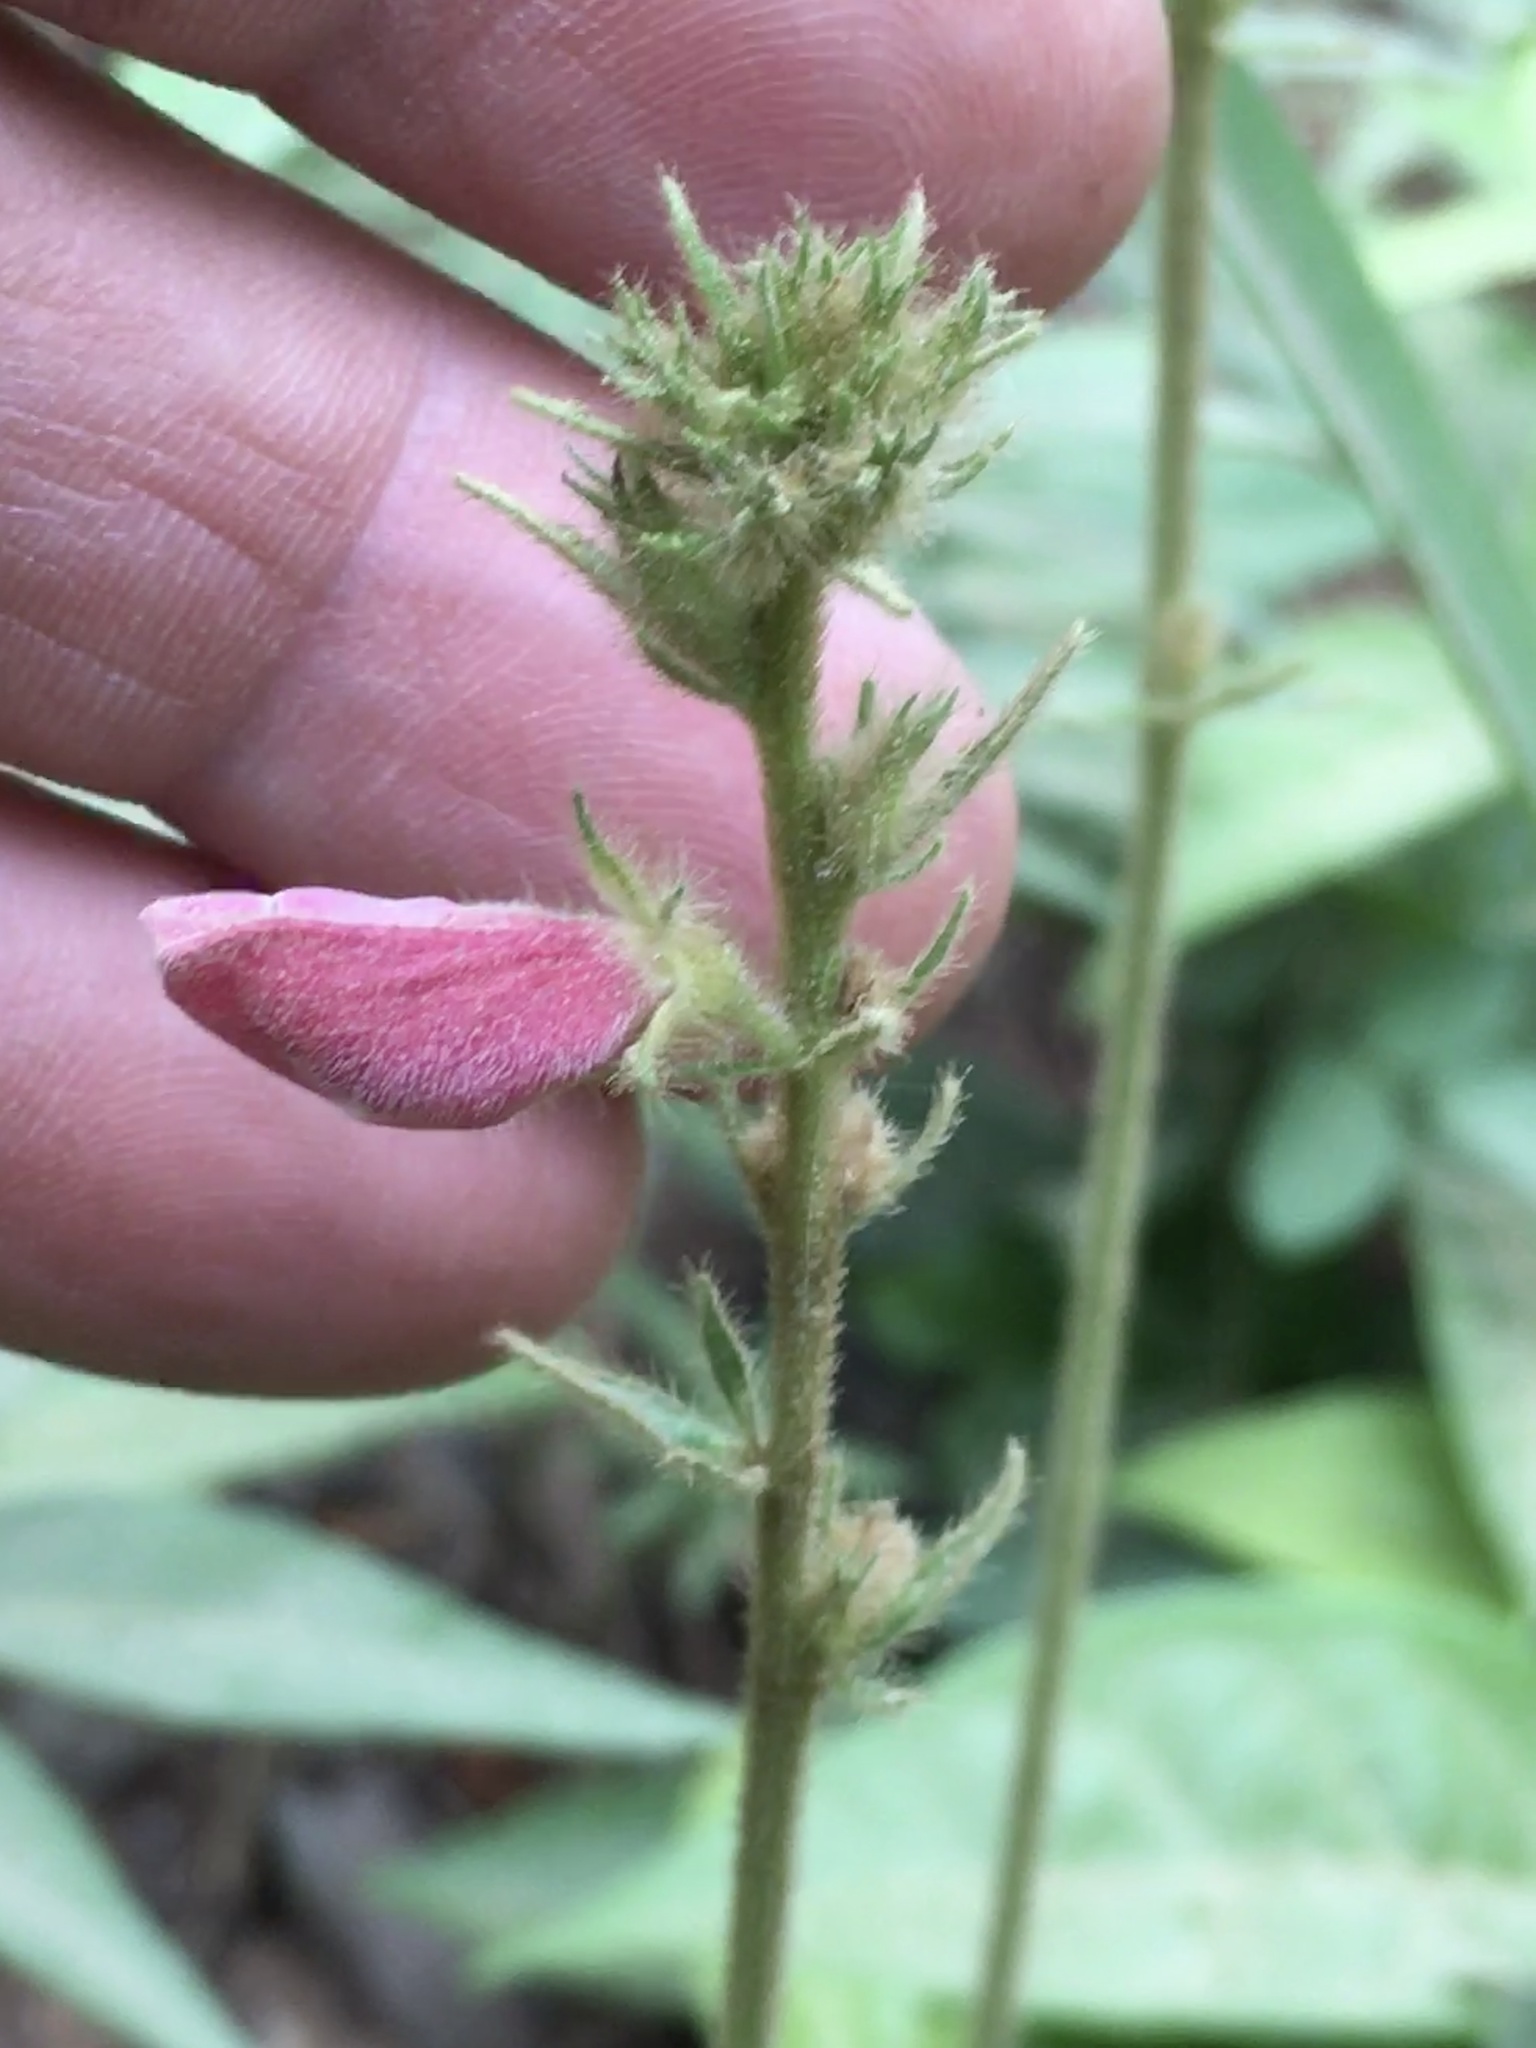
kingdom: Plantae
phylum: Tracheophyta
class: Magnoliopsida
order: Fabales
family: Fabaceae
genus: Tephrosia
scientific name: Tephrosia spicata
